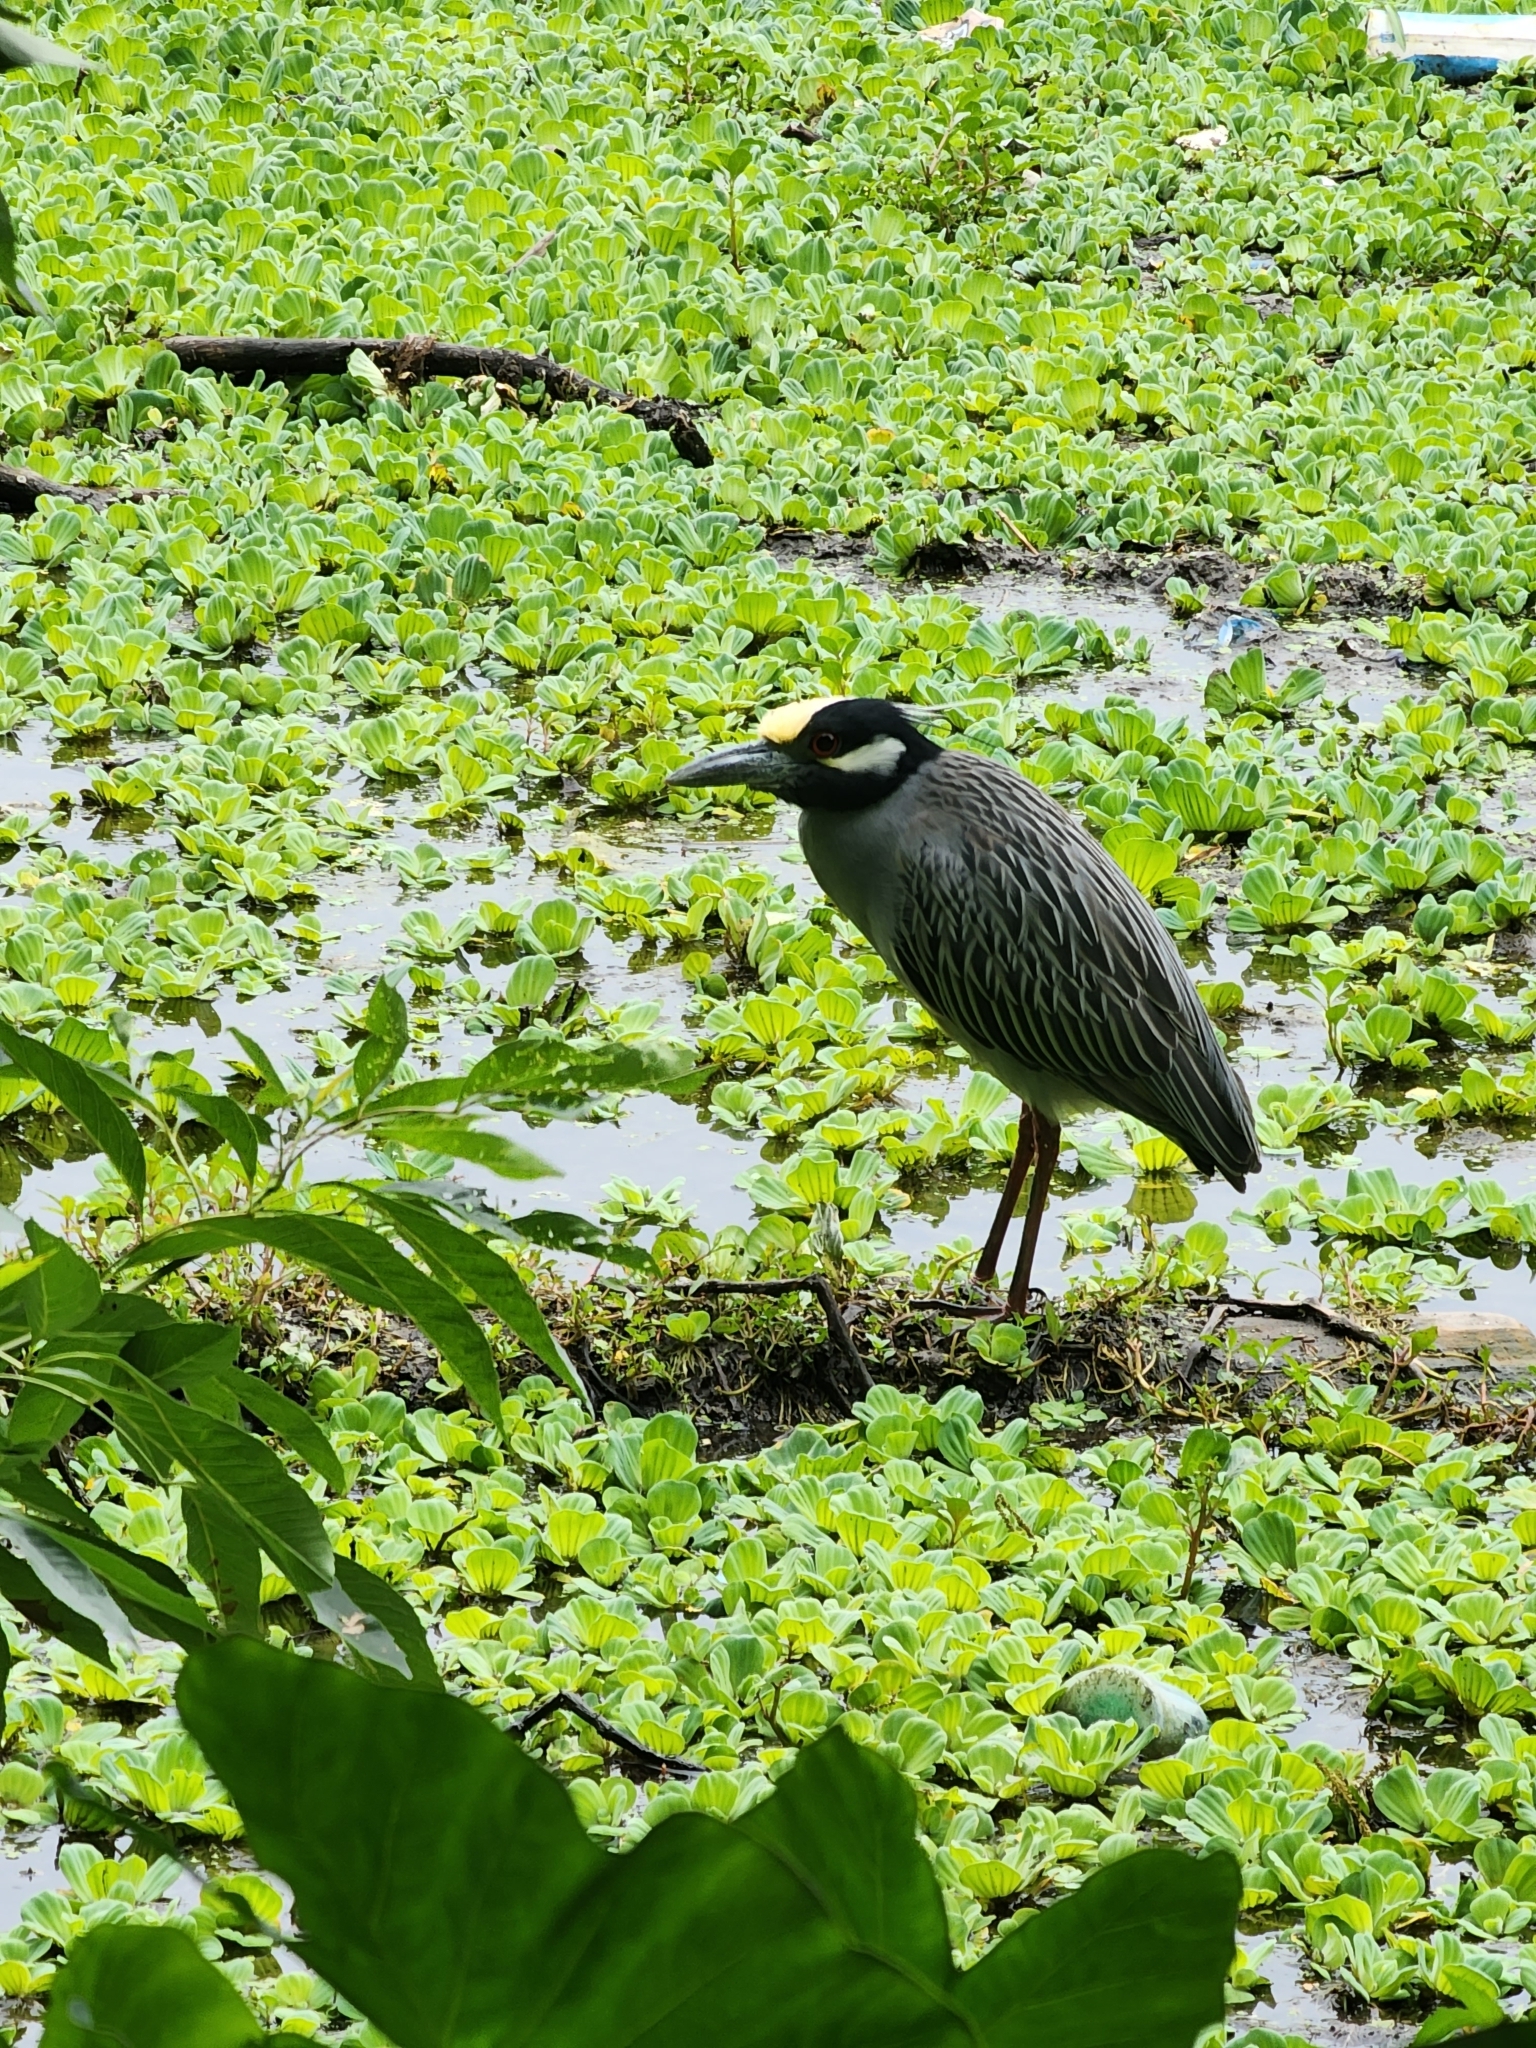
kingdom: Animalia
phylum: Chordata
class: Aves
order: Pelecaniformes
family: Ardeidae
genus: Nyctanassa
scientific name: Nyctanassa violacea
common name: Yellow-crowned night heron
